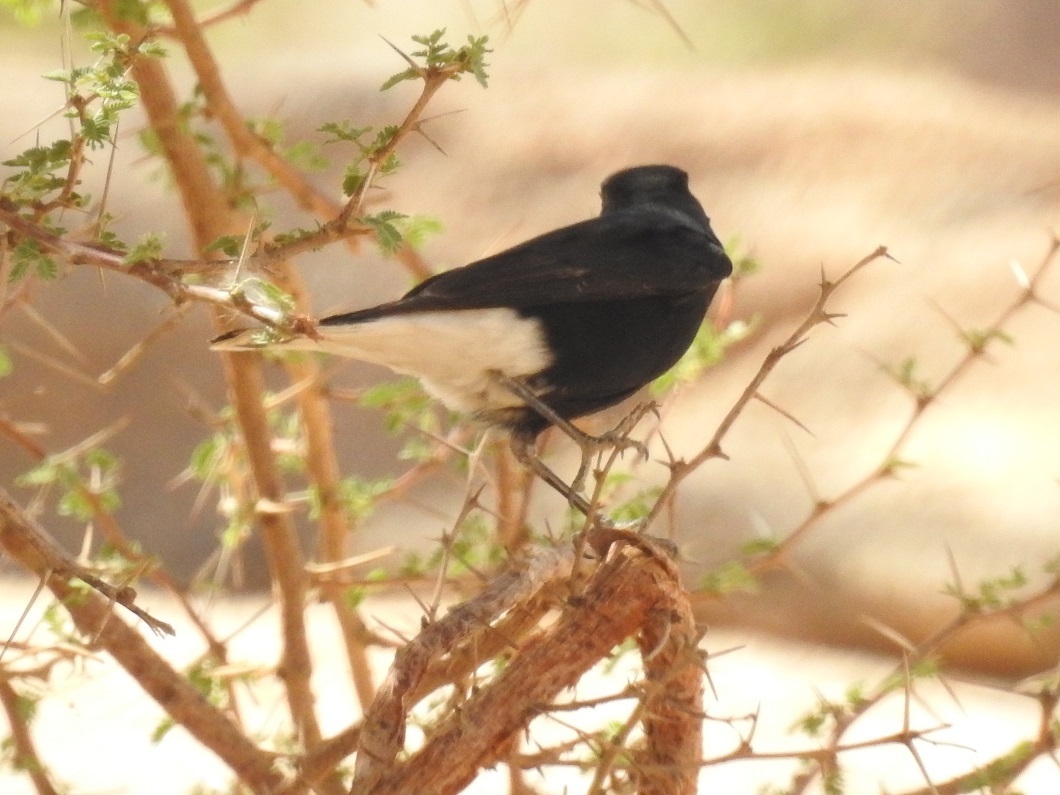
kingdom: Animalia
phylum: Chordata
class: Aves
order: Passeriformes
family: Muscicapidae
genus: Oenanthe
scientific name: Oenanthe leucopyga
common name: White-crowned wheatear
